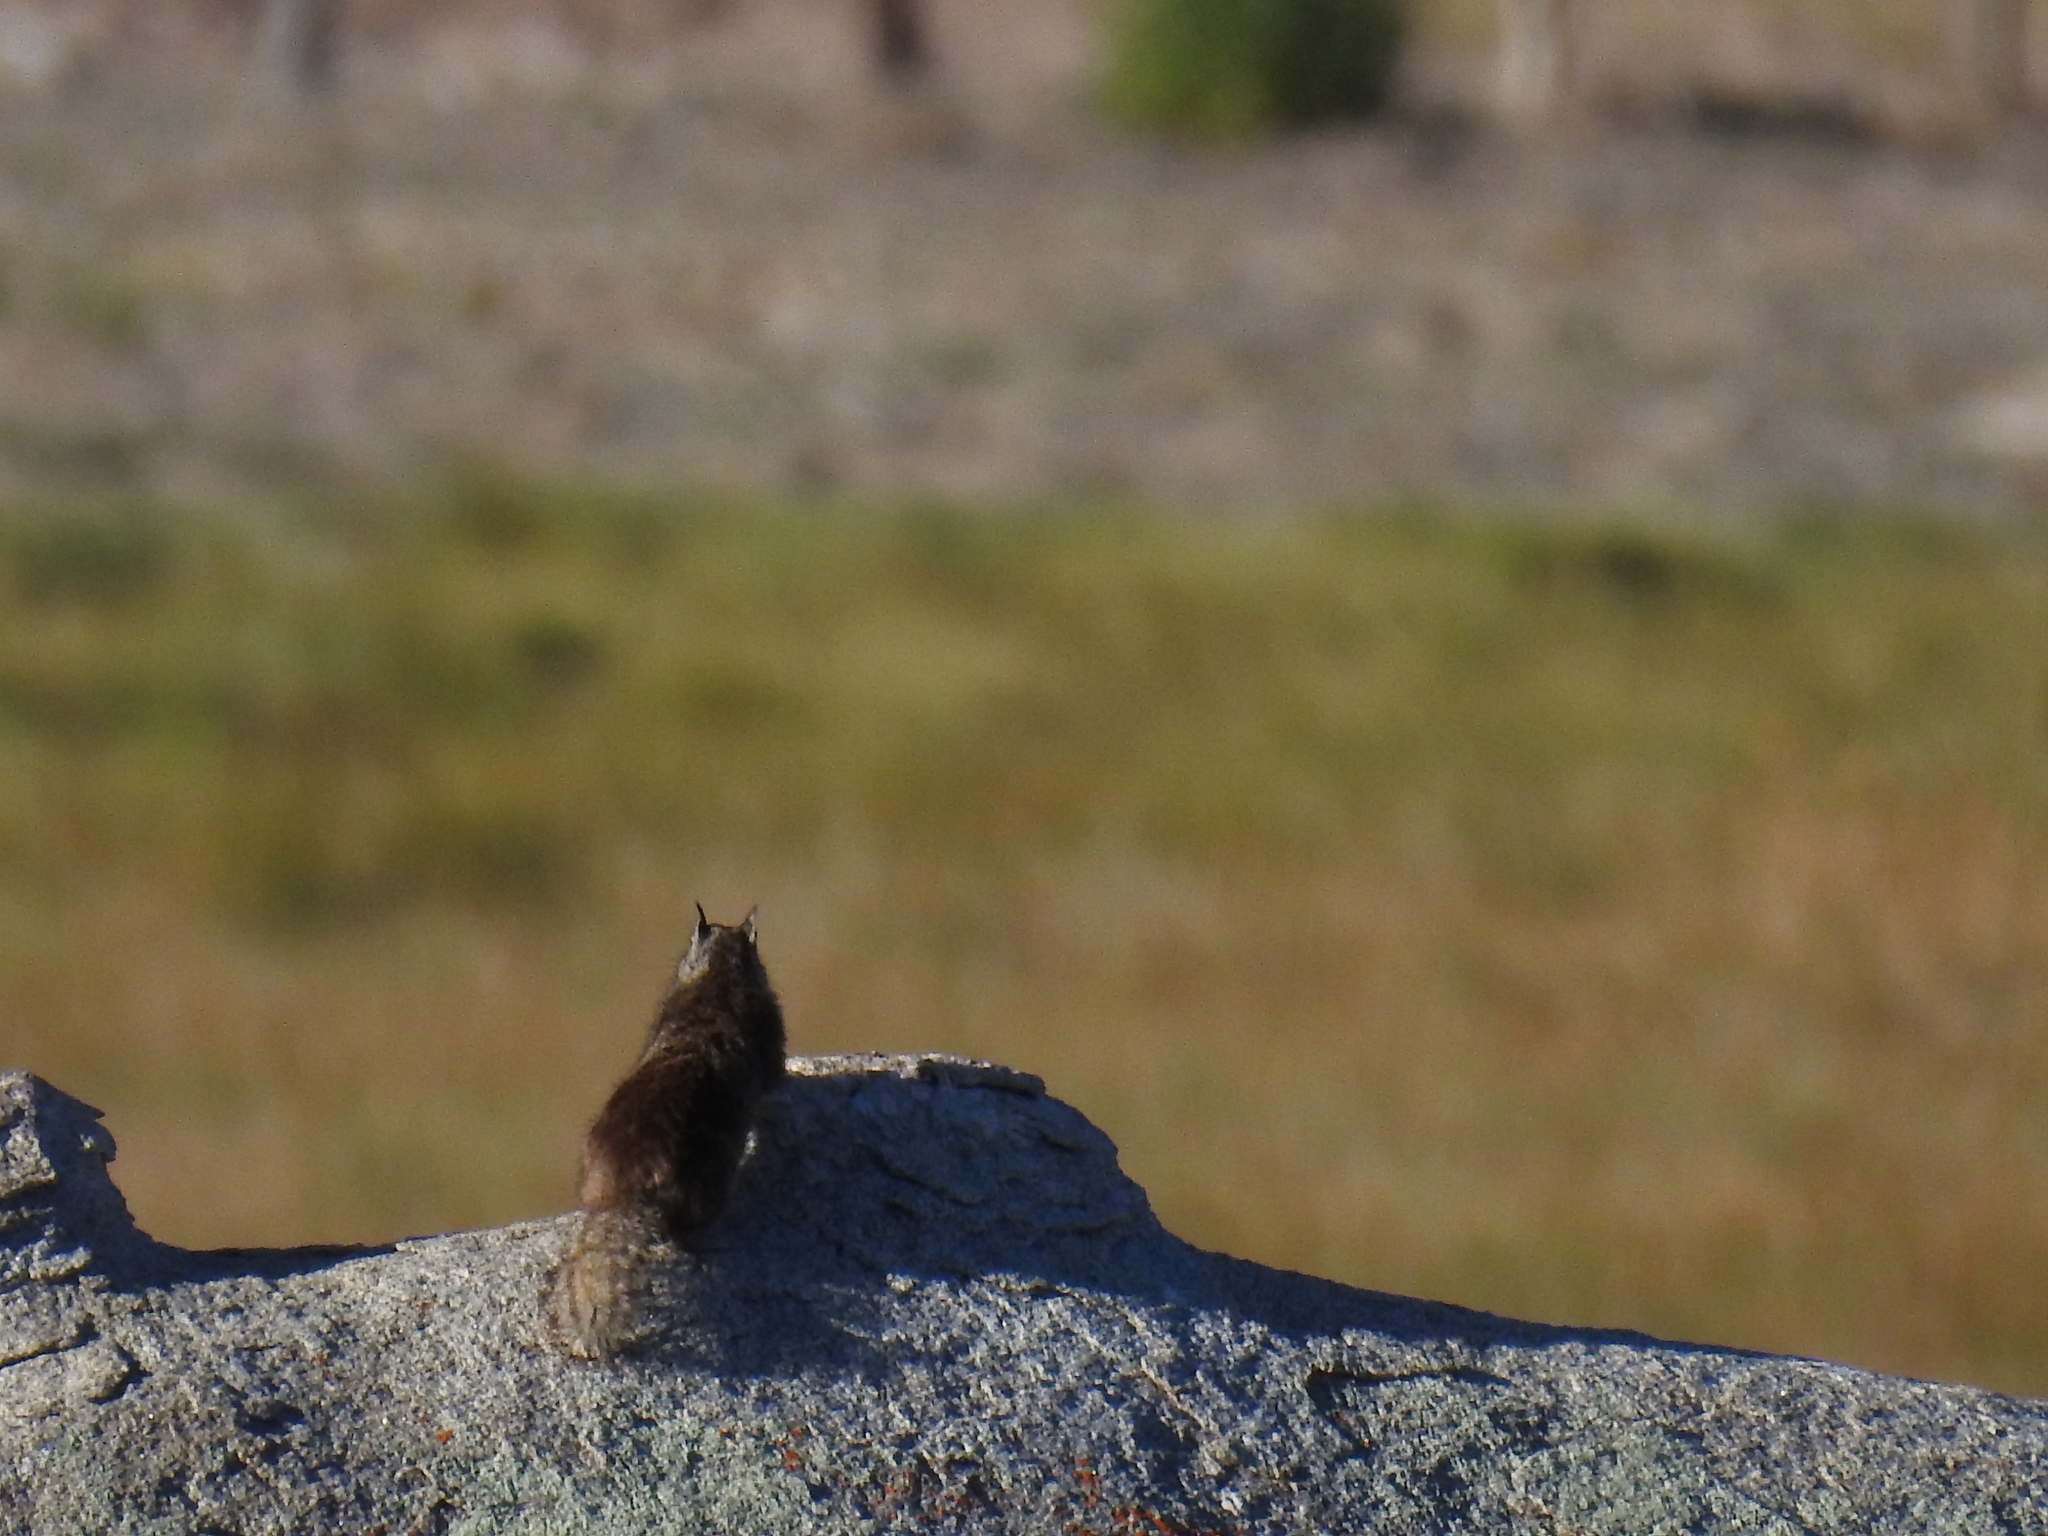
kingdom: Animalia
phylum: Chordata
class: Mammalia
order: Rodentia
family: Sciuridae
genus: Otospermophilus
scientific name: Otospermophilus beecheyi
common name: California ground squirrel
